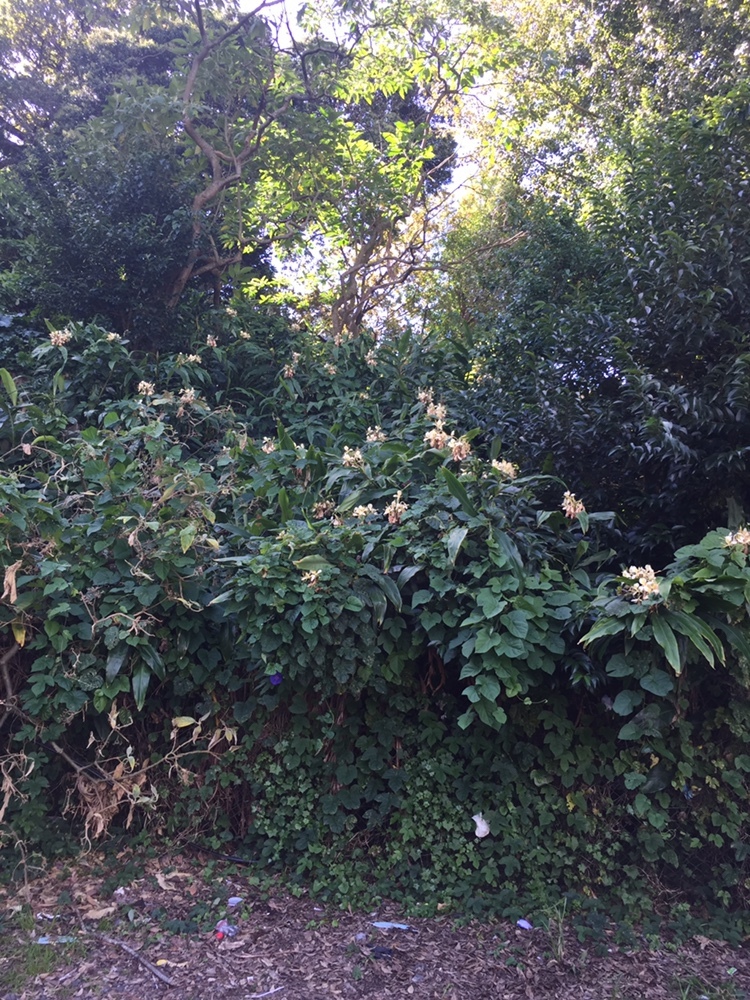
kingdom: Plantae
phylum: Tracheophyta
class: Liliopsida
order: Zingiberales
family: Zingiberaceae
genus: Hedychium
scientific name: Hedychium flavescens
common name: Yellow ginger
